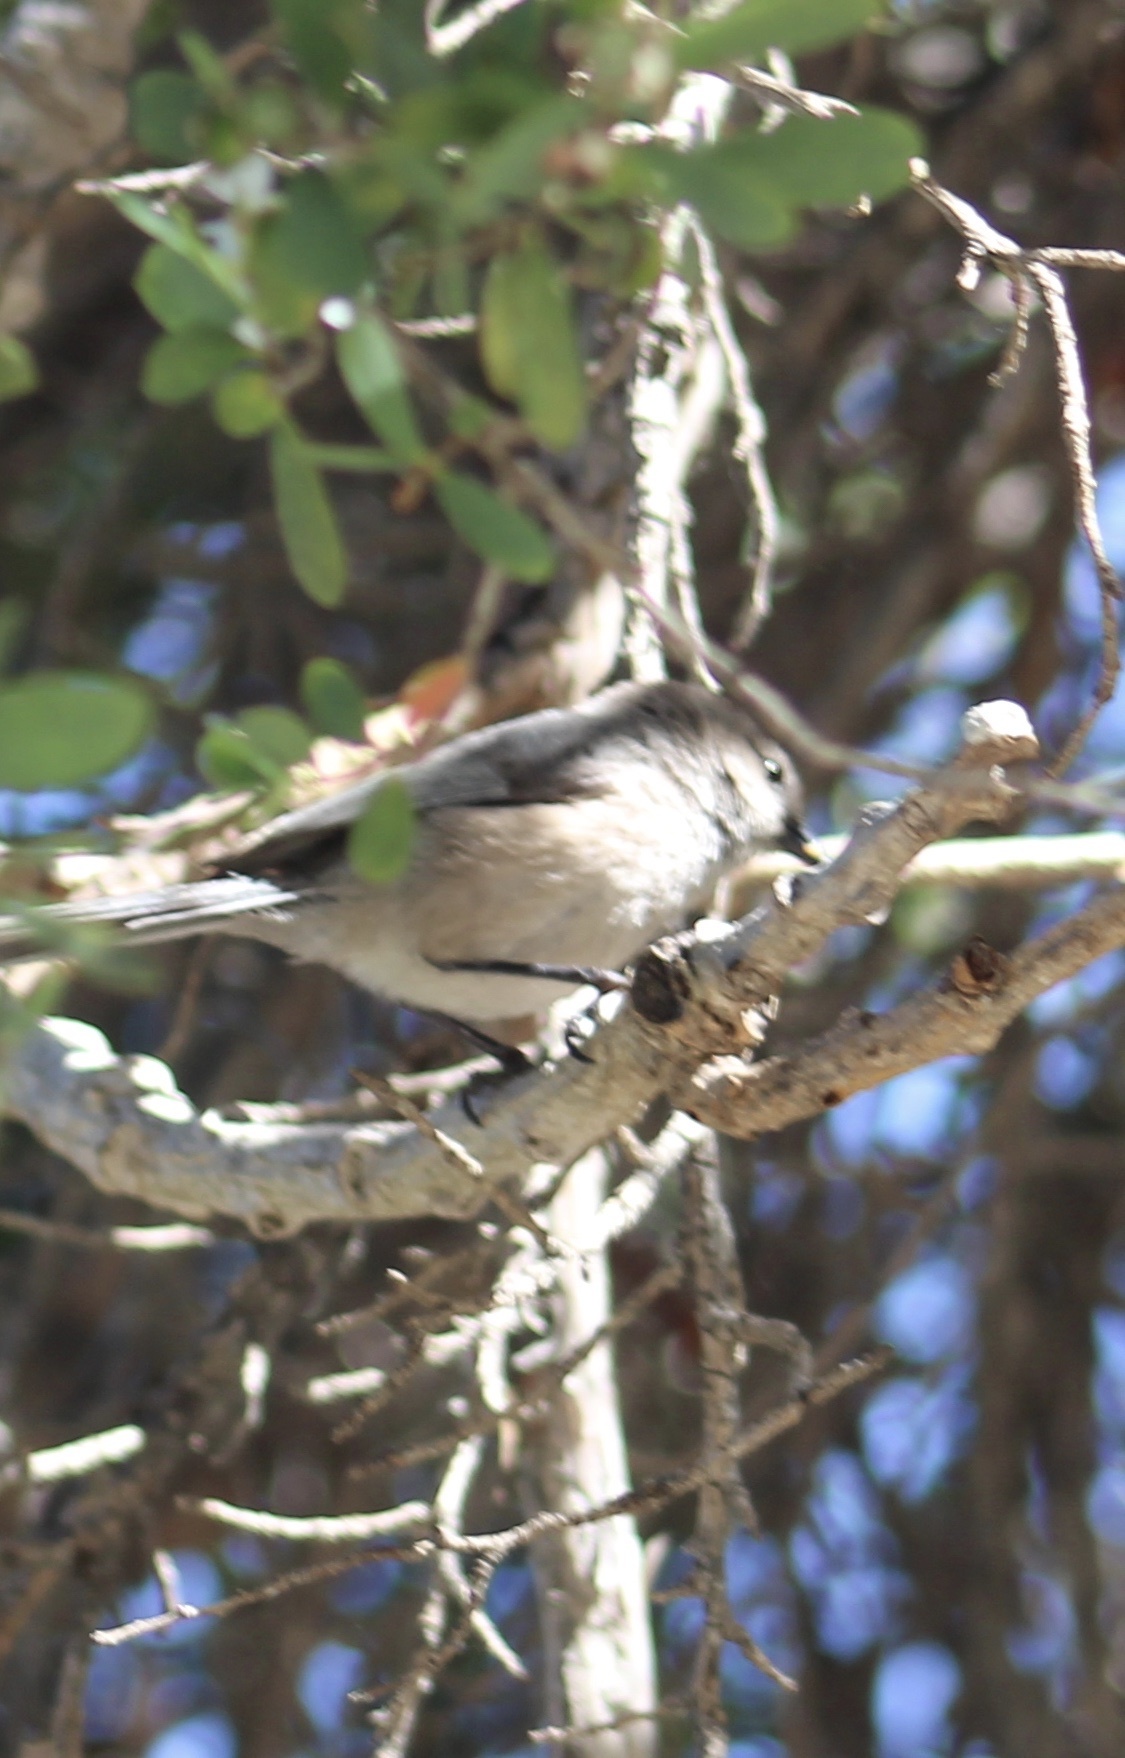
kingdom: Animalia
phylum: Chordata
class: Aves
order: Passeriformes
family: Aegithalidae
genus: Psaltriparus
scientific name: Psaltriparus minimus
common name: American bushtit
